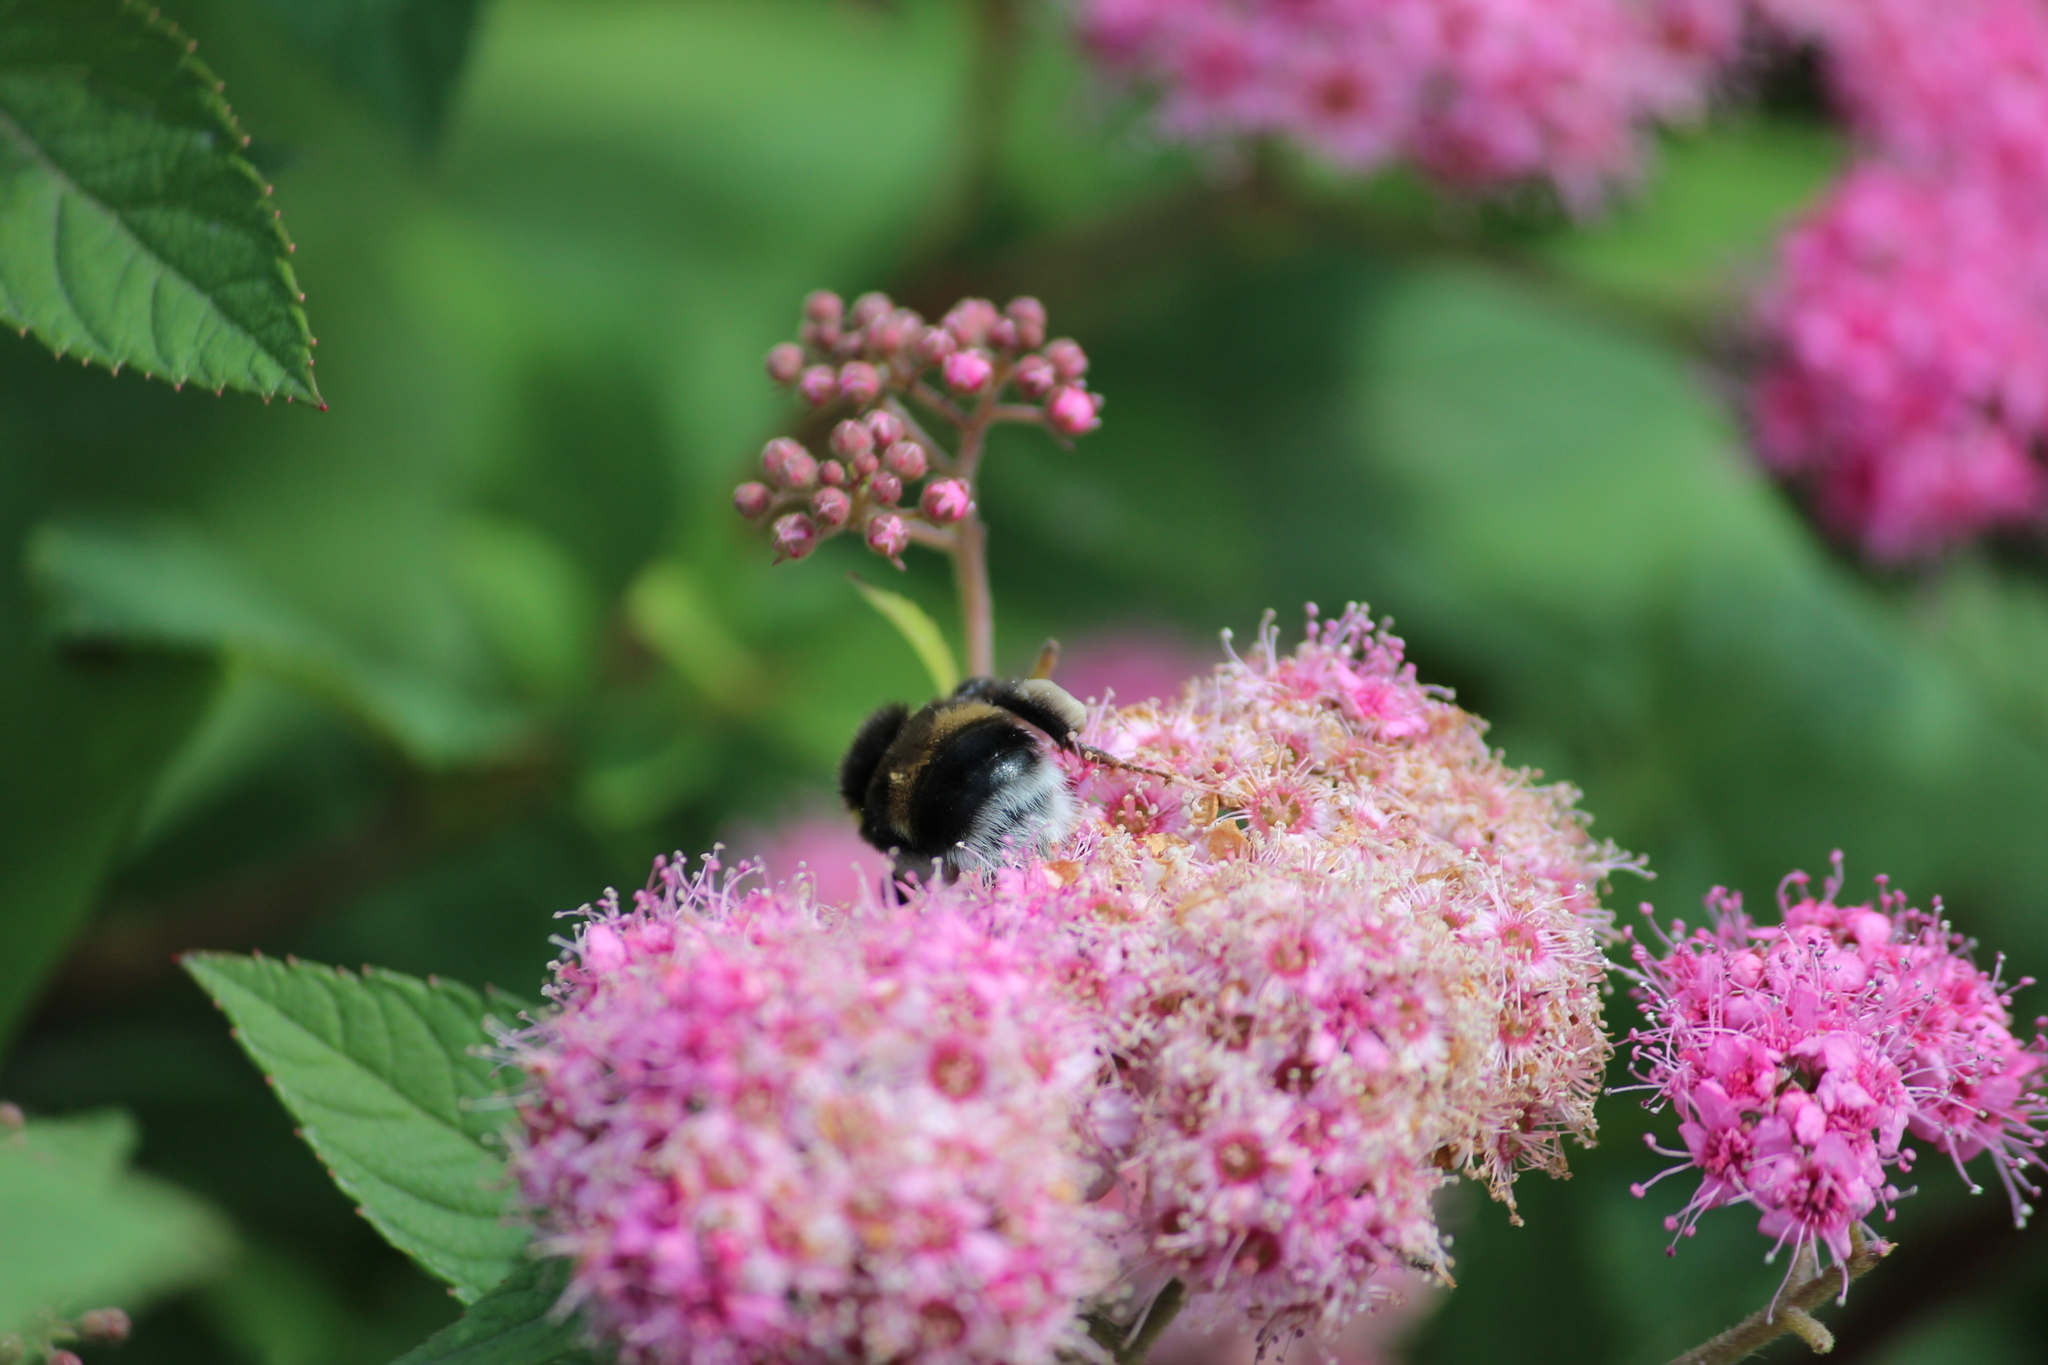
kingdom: Animalia
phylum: Arthropoda
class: Insecta
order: Hymenoptera
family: Apidae
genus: Bombus
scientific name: Bombus
